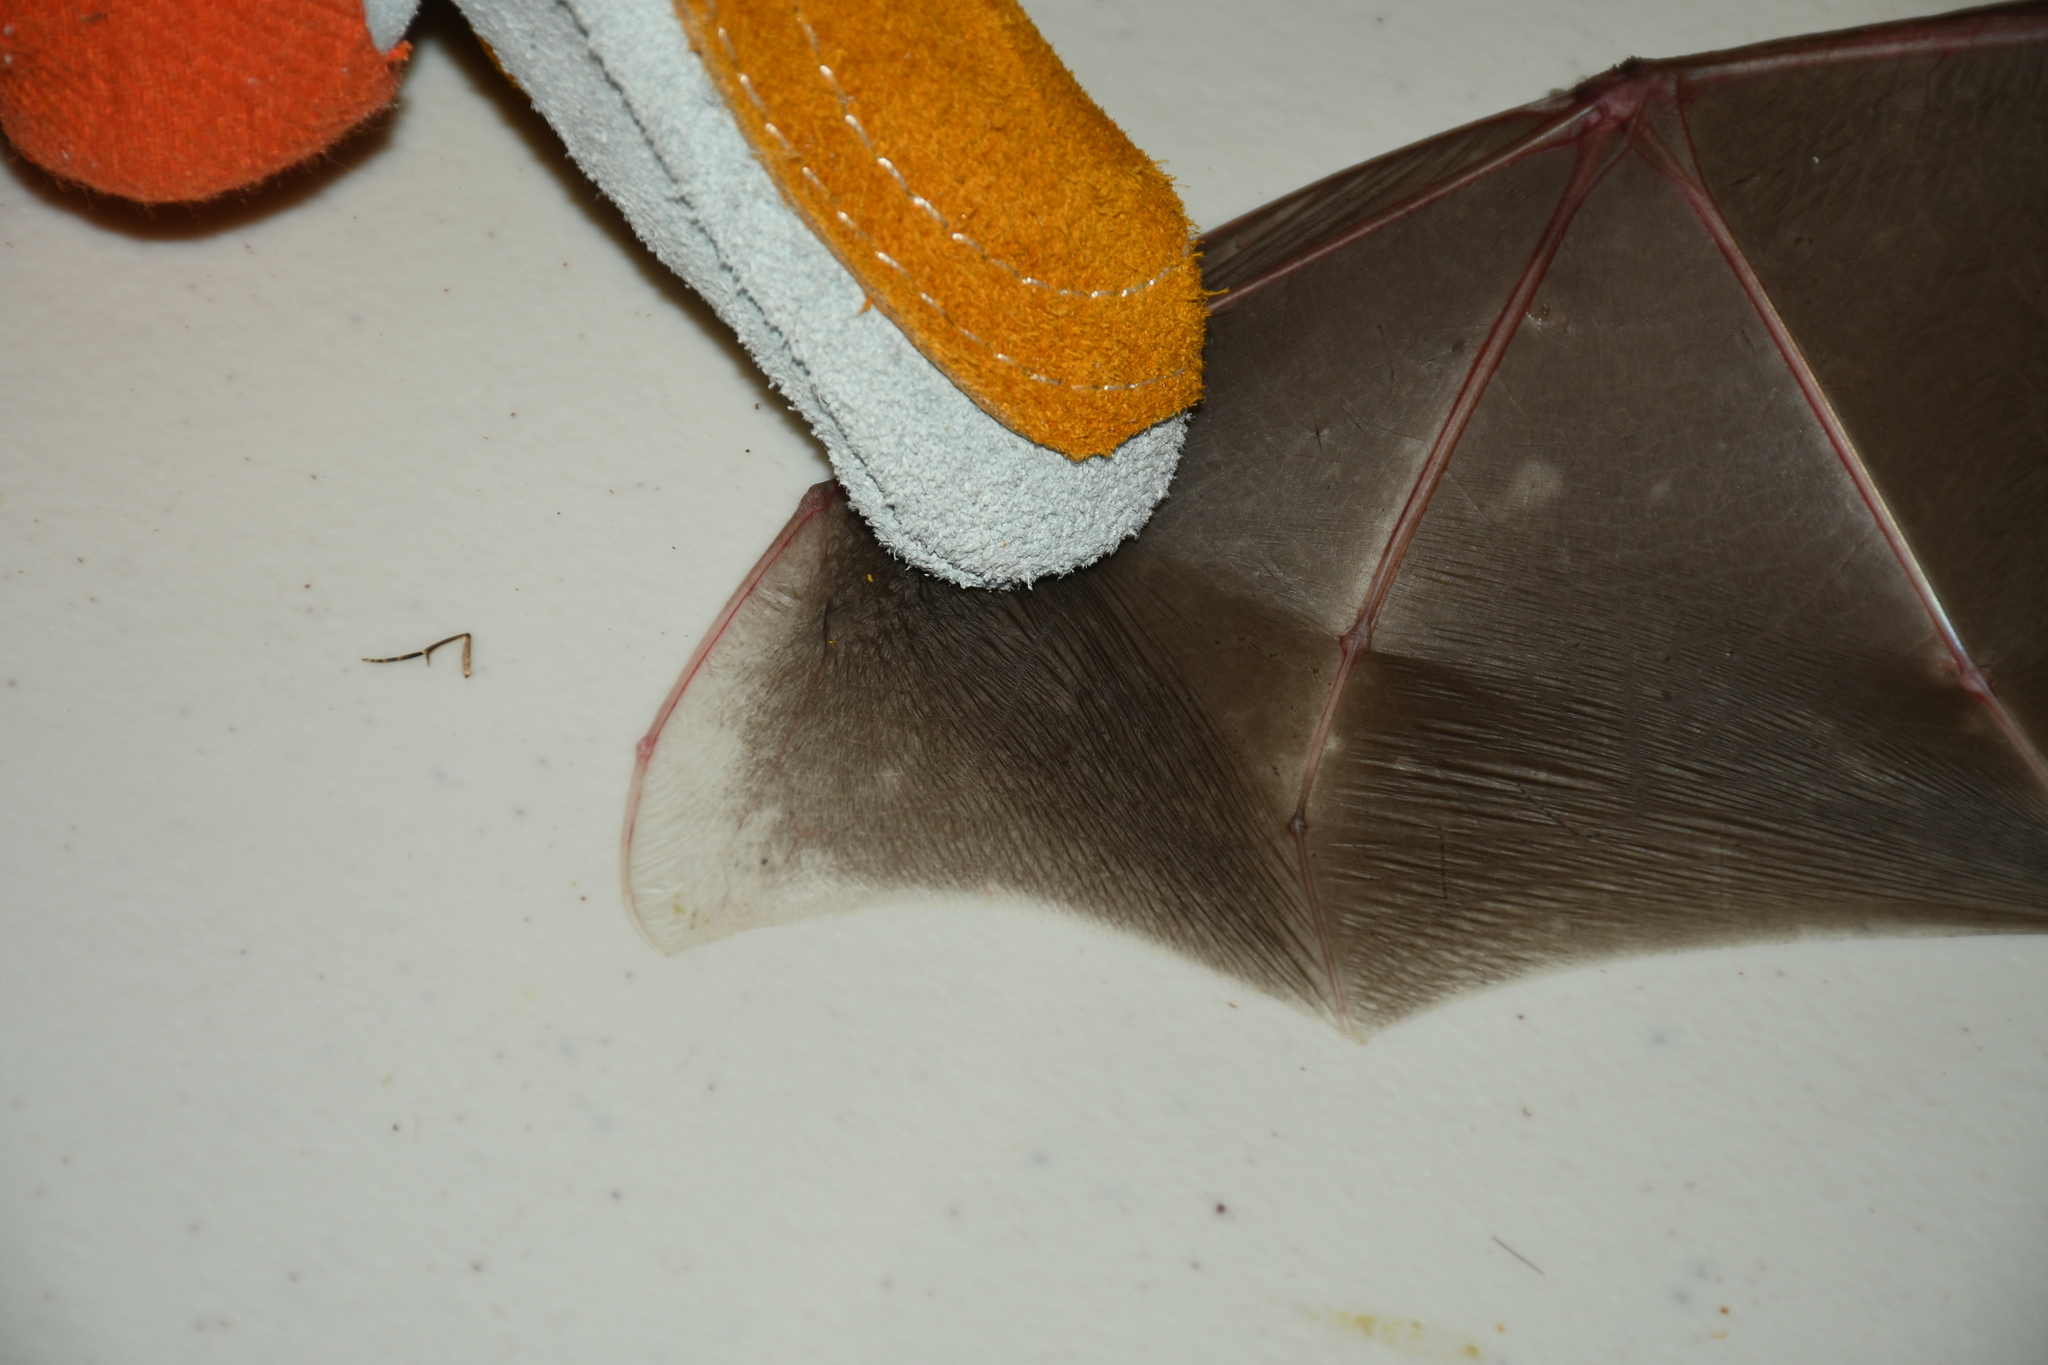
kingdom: Animalia
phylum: Chordata
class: Mammalia
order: Chiroptera
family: Phyllostomidae
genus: Mimon
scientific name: Mimon cozumelae
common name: Cozumelan golden bat
